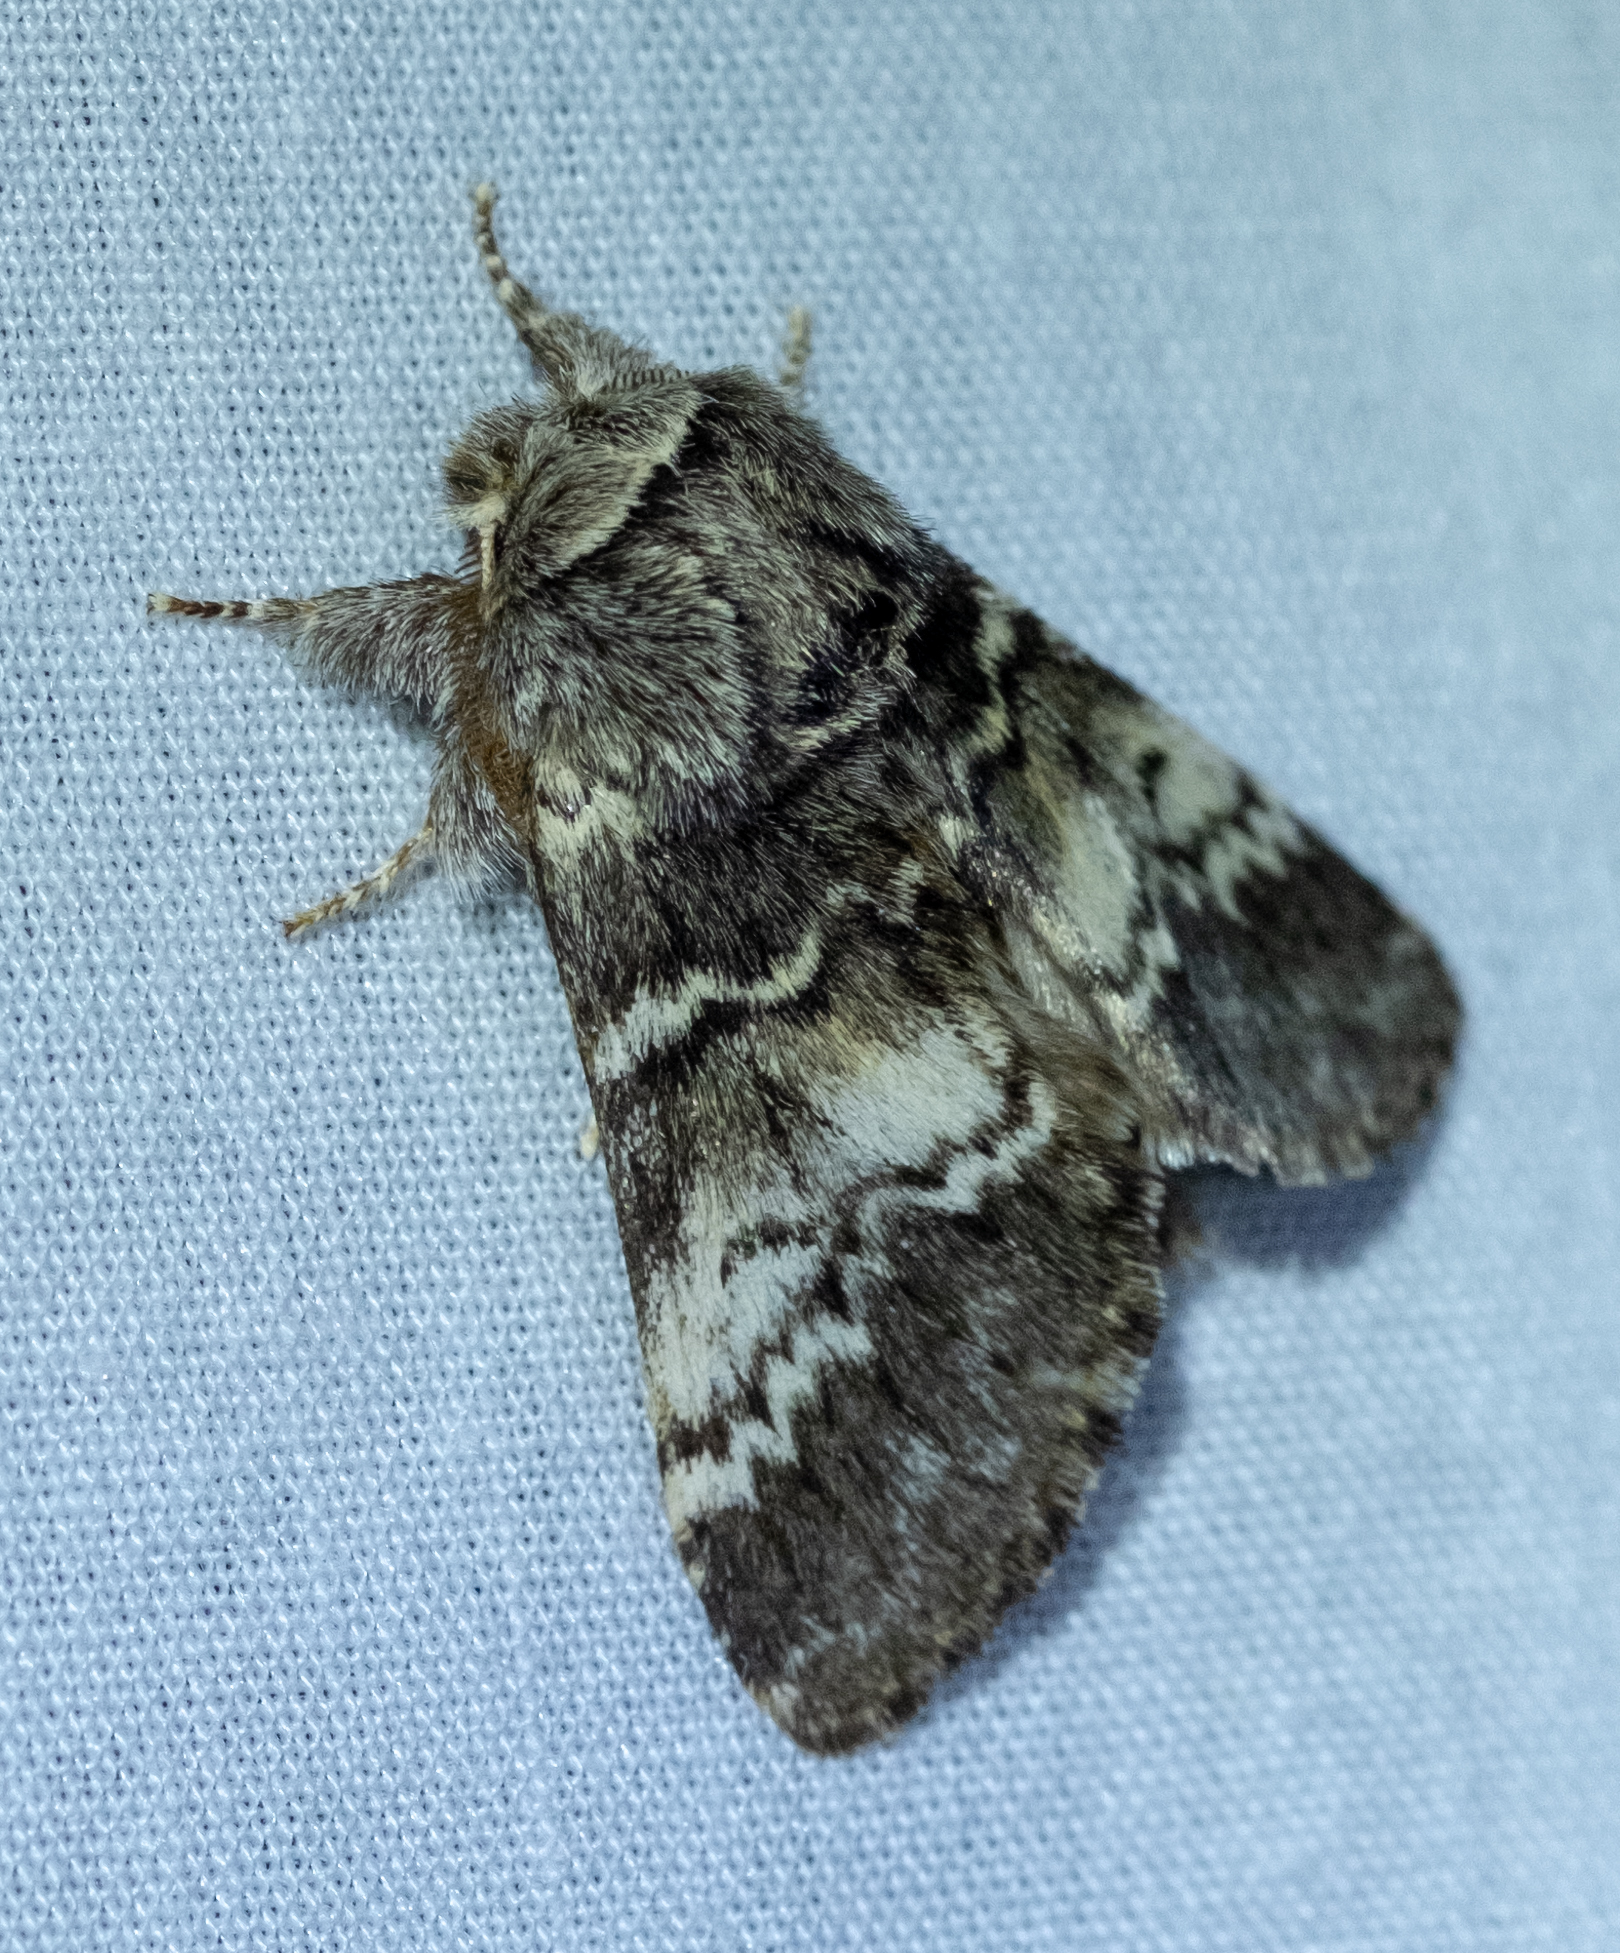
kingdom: Animalia
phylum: Arthropoda
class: Insecta
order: Lepidoptera
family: Notodontidae
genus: Drymonia
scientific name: Drymonia ruficornis
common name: Lunar marbled brown
